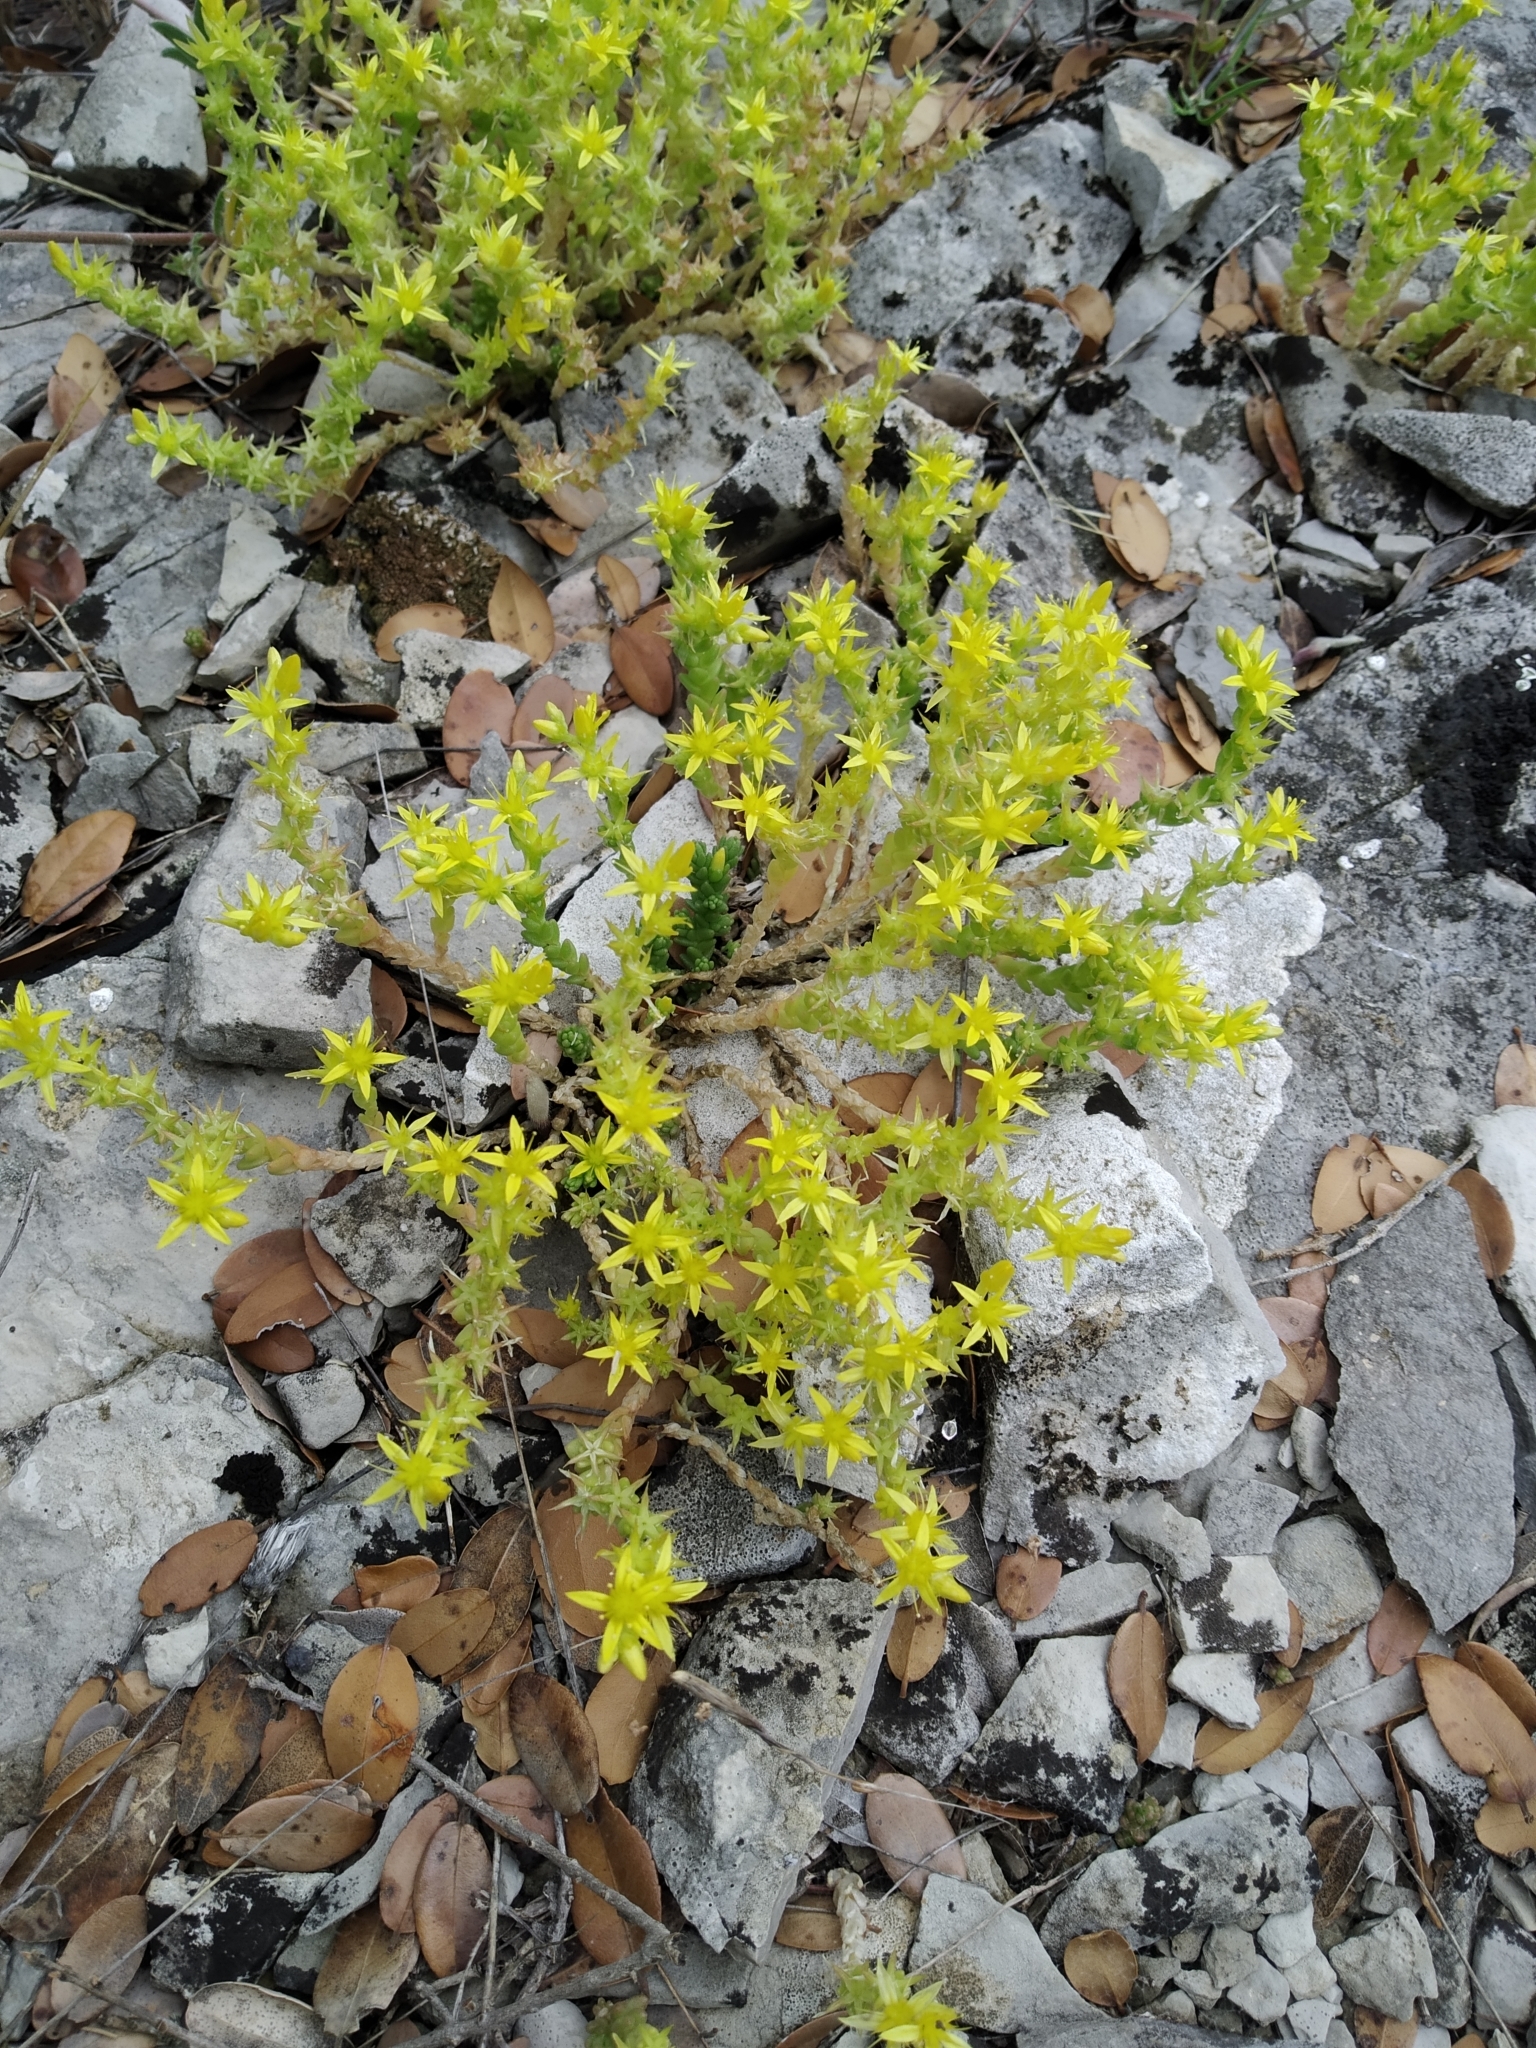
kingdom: Plantae
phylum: Tracheophyta
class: Magnoliopsida
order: Saxifragales
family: Crassulaceae
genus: Sedum
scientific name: Sedum acre
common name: Biting stonecrop
